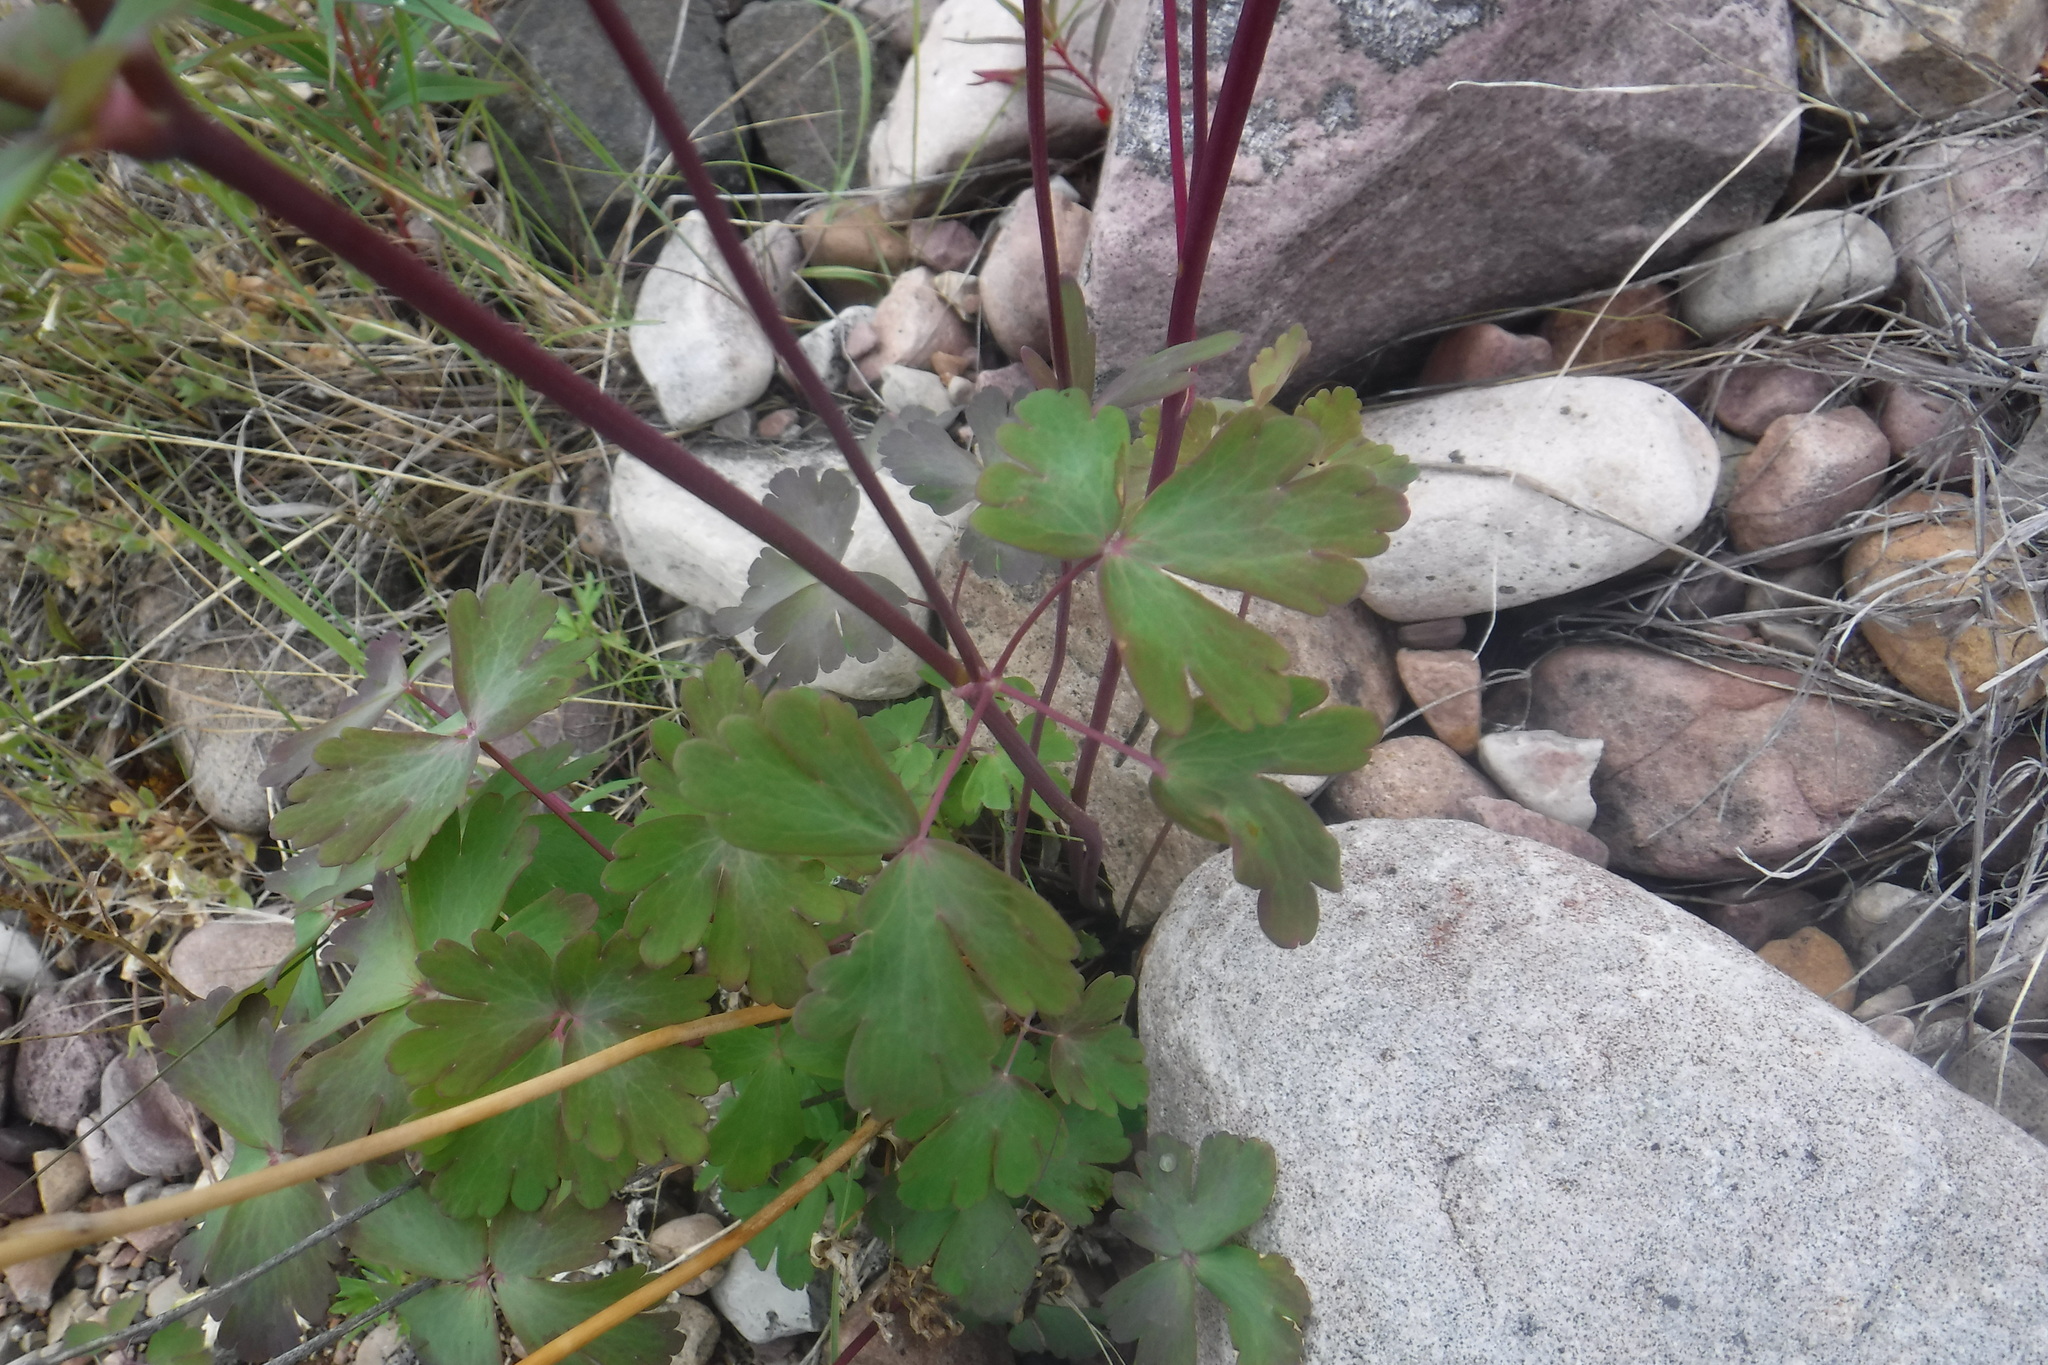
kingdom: Plantae
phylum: Tracheophyta
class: Magnoliopsida
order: Ranunculales
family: Ranunculaceae
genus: Aquilegia
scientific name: Aquilegia brevistyla
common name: Yukon columbine
